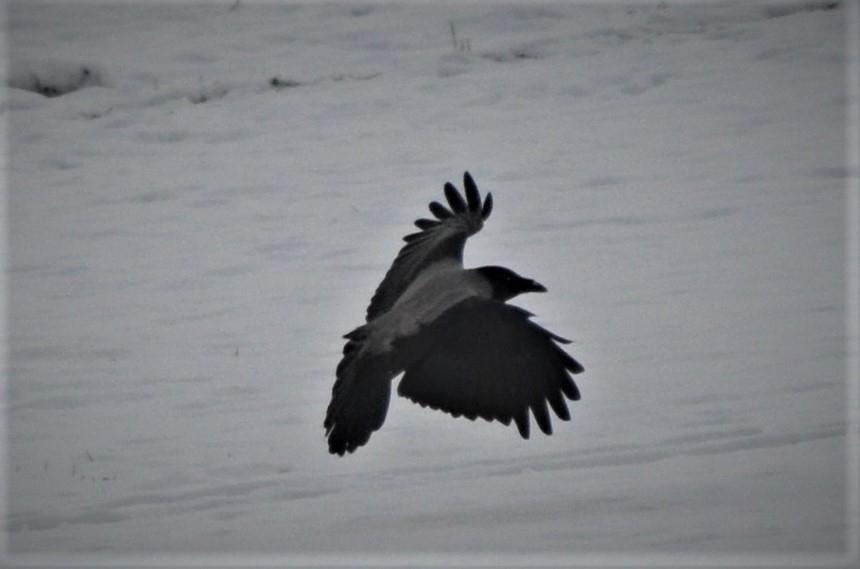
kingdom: Animalia
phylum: Chordata
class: Aves
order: Passeriformes
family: Corvidae
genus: Corvus
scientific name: Corvus cornix
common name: Hooded crow
